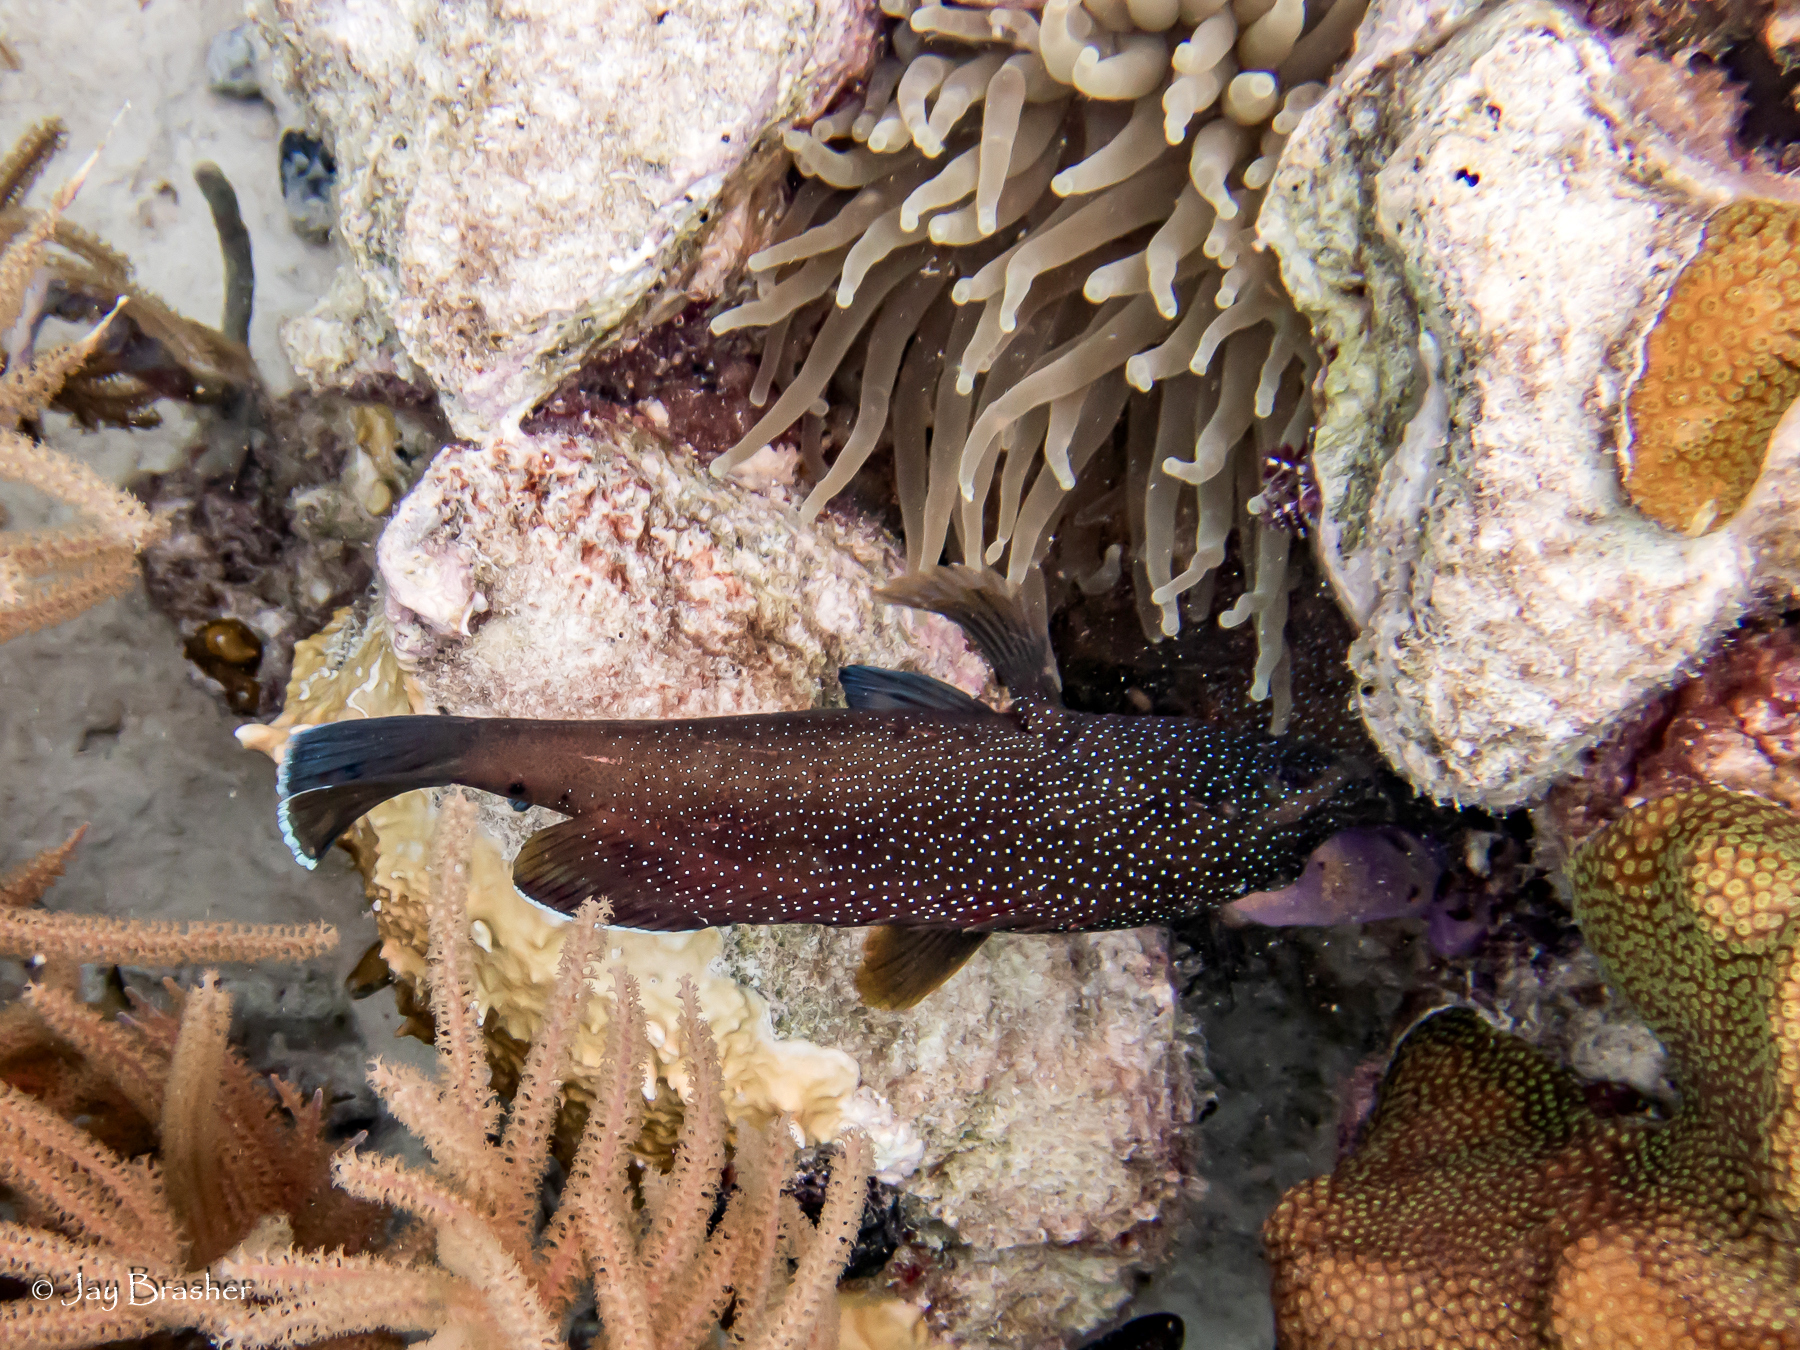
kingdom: Animalia
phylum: Cnidaria
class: Anthozoa
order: Actiniaria
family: Actiniidae
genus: Condylactis
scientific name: Condylactis gigantea
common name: Giant caribbean anemone
